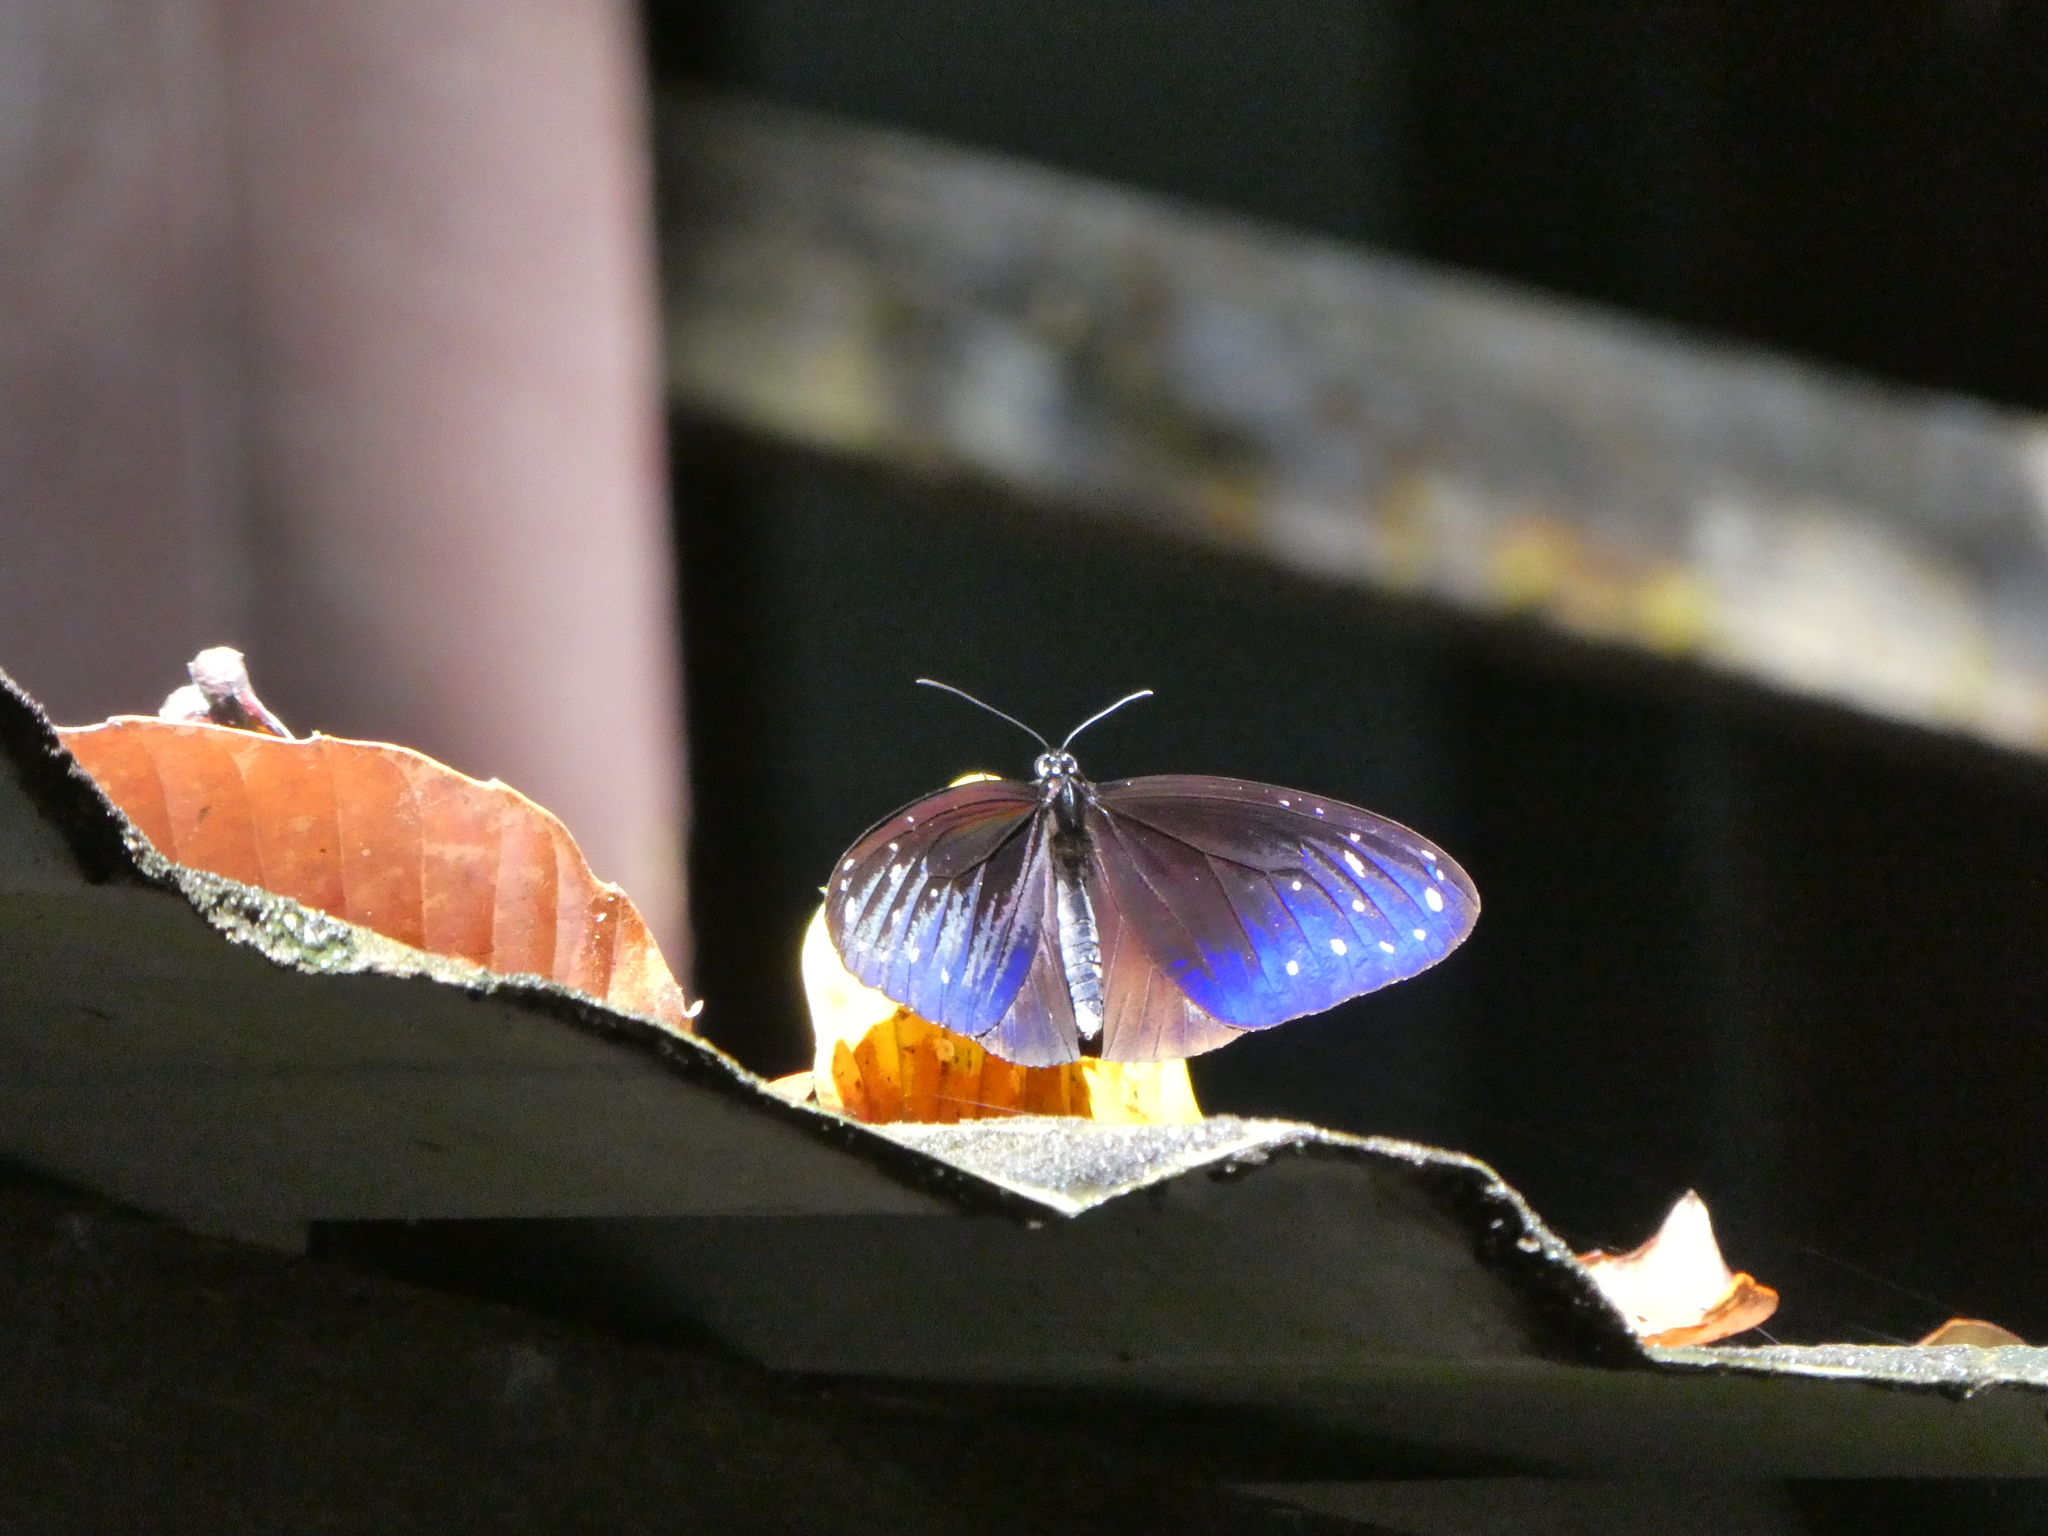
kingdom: Animalia
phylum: Arthropoda
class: Insecta
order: Lepidoptera
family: Nymphalidae
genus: Euploea
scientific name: Euploea mulciber
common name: Striped blue crow butterfly
